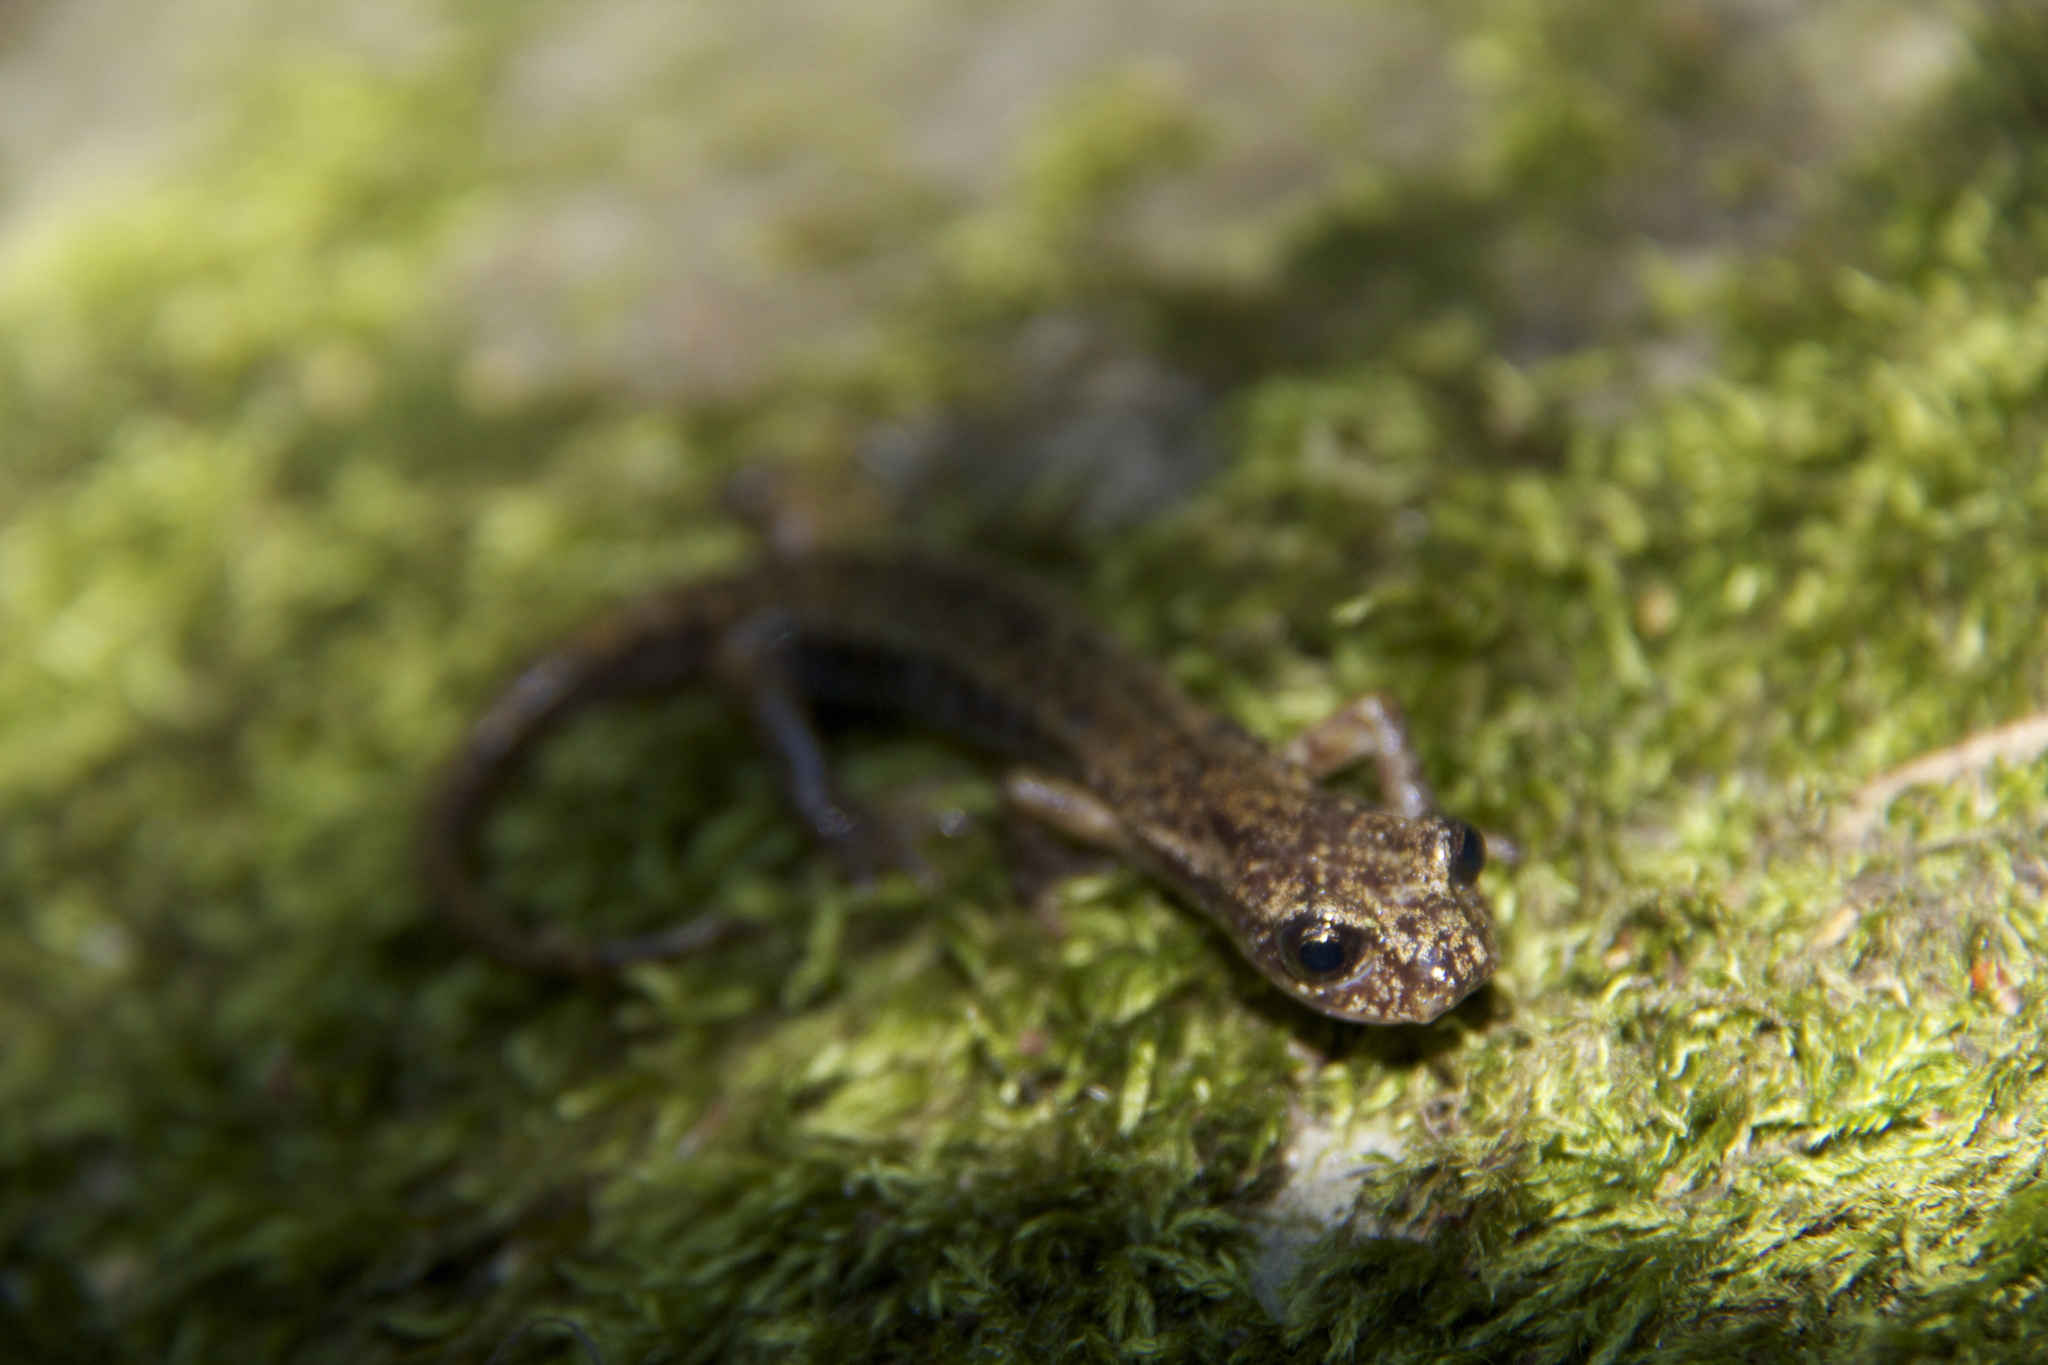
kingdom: Animalia
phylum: Chordata
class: Amphibia
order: Caudata
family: Plethodontidae
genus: Speleomantes
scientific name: Speleomantes italicus
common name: Italian cave salamander
